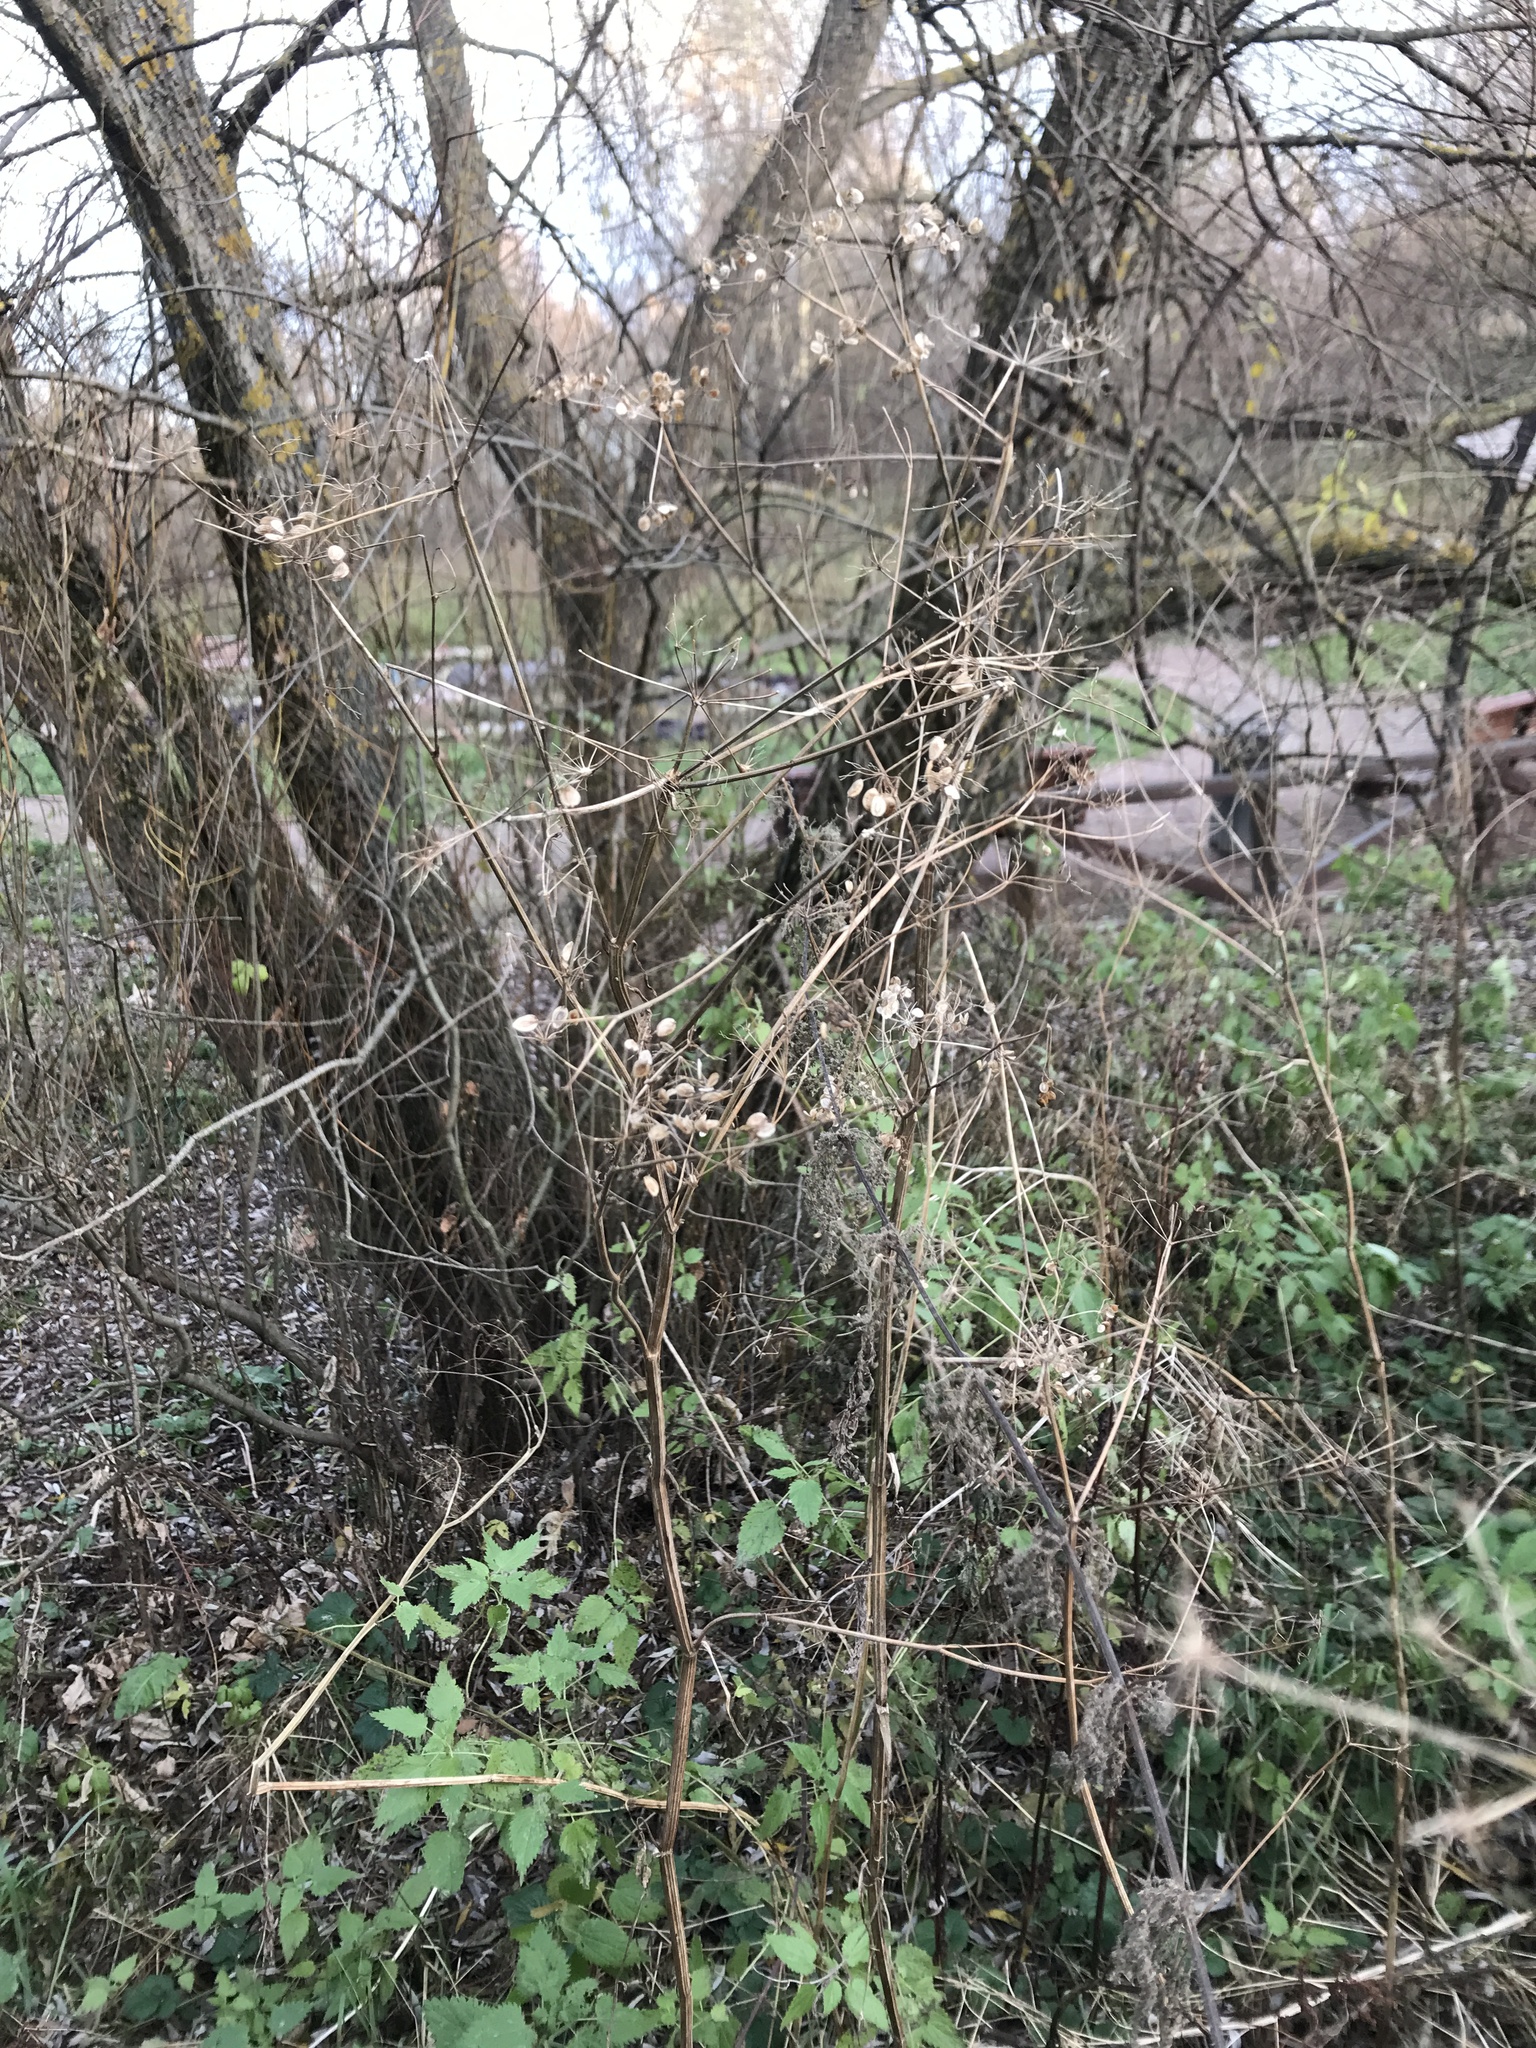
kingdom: Plantae
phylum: Tracheophyta
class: Magnoliopsida
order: Apiales
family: Apiaceae
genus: Heracleum
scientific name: Heracleum sphondylium
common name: Hogweed
